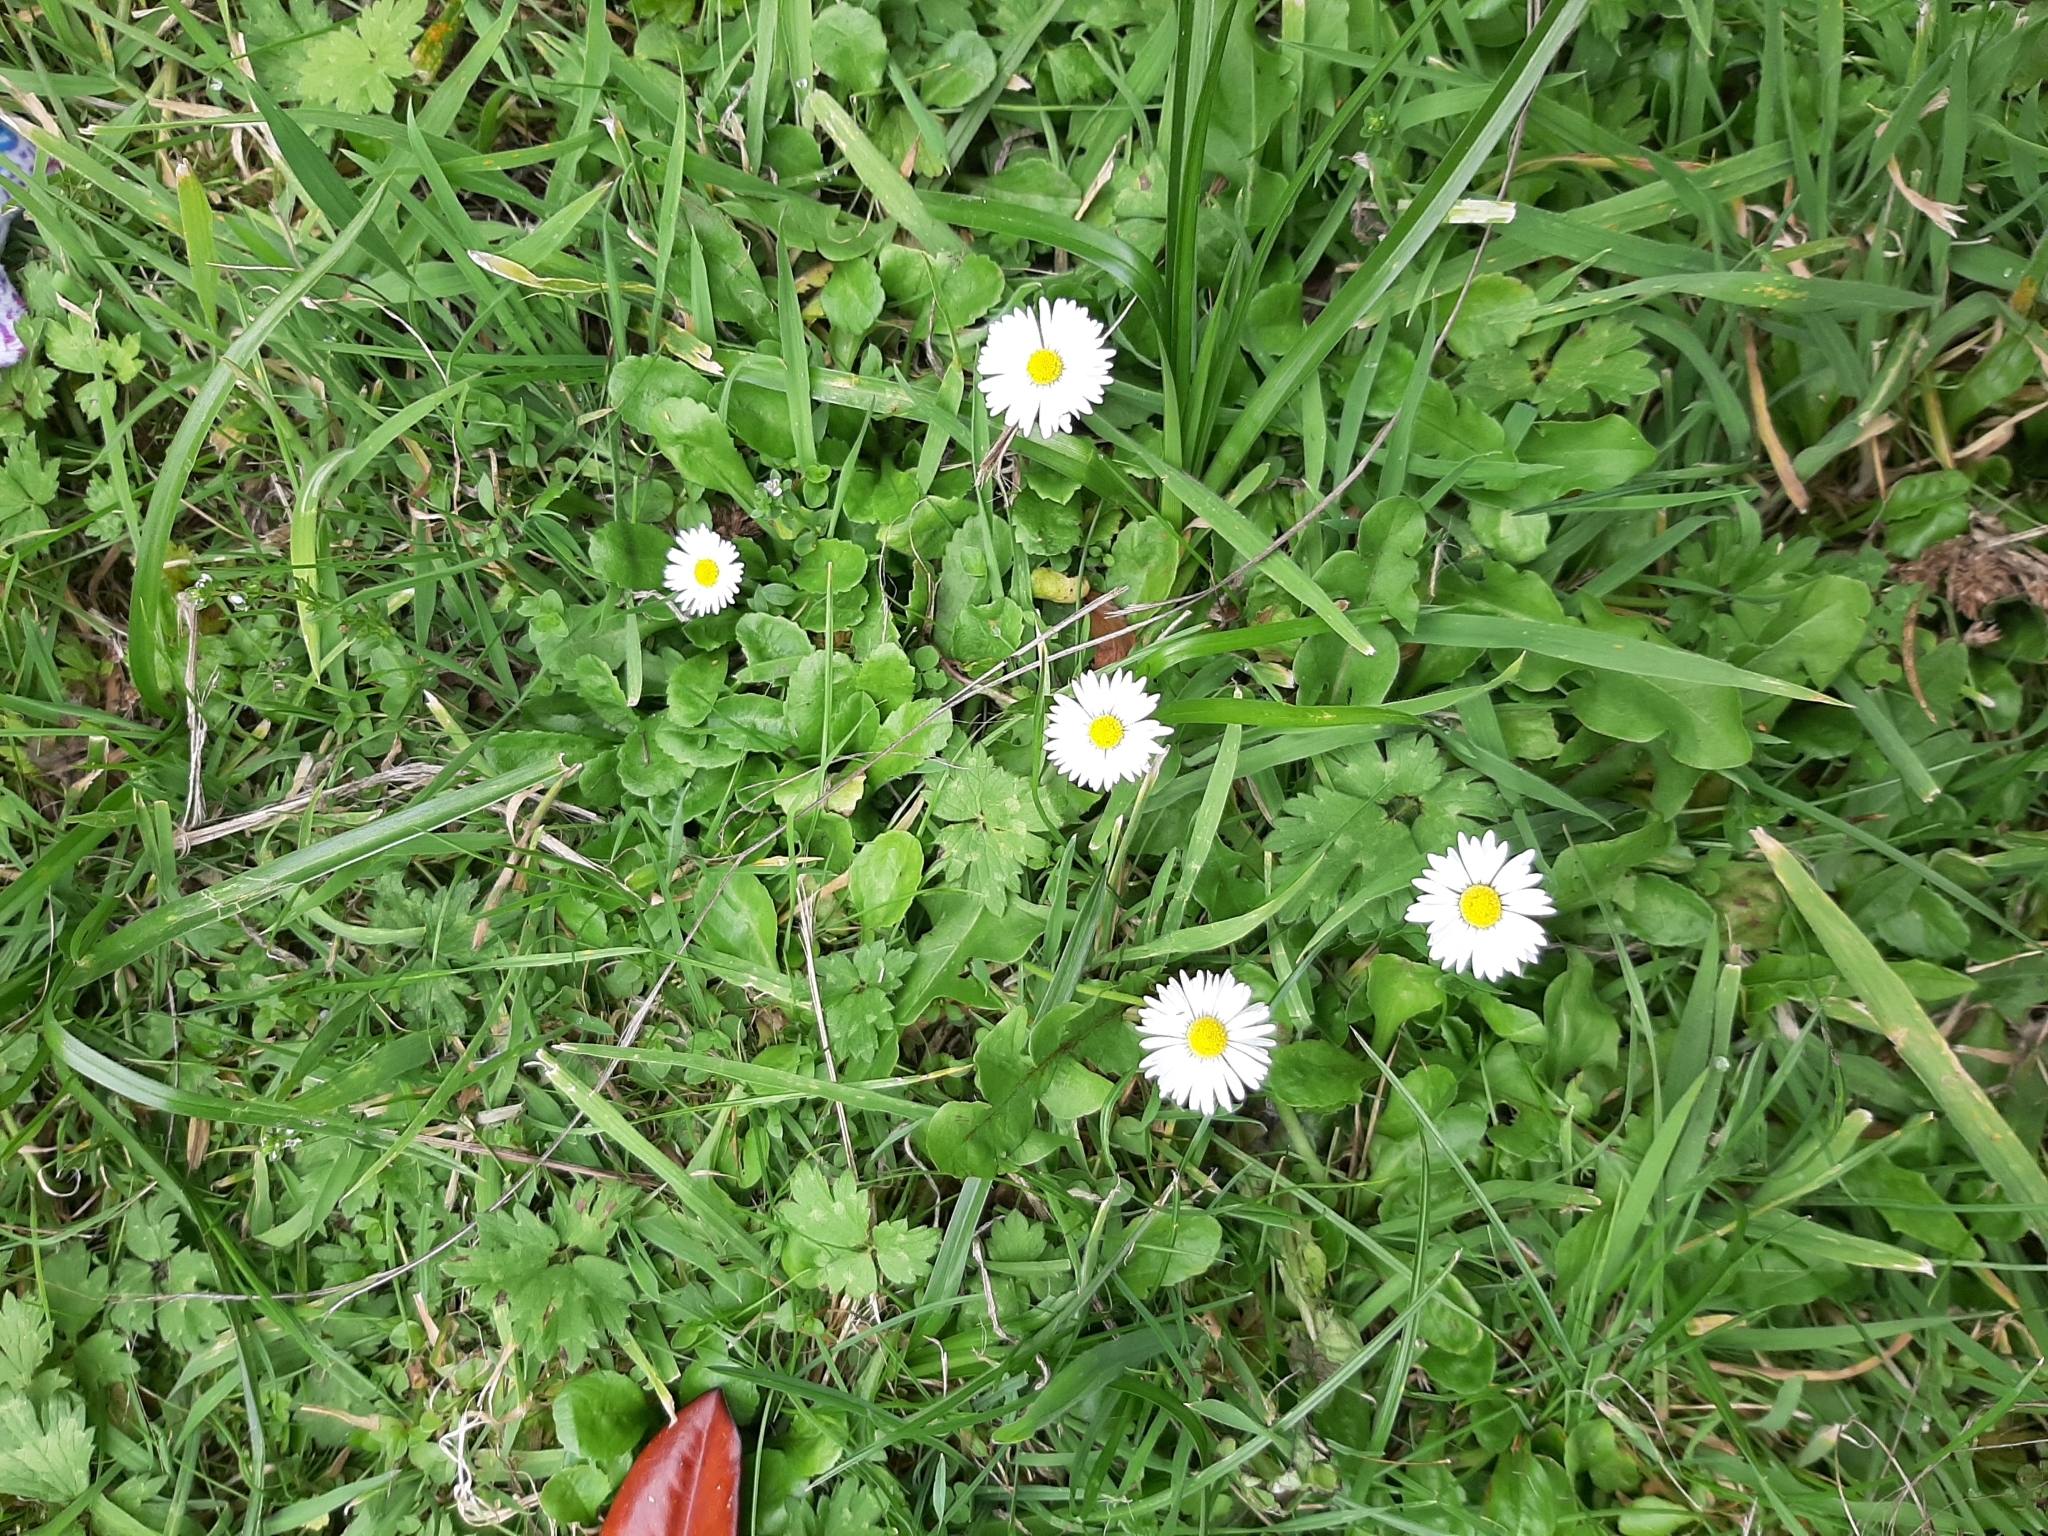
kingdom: Plantae
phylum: Tracheophyta
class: Magnoliopsida
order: Asterales
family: Asteraceae
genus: Bellis
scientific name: Bellis perennis
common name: Lawndaisy
